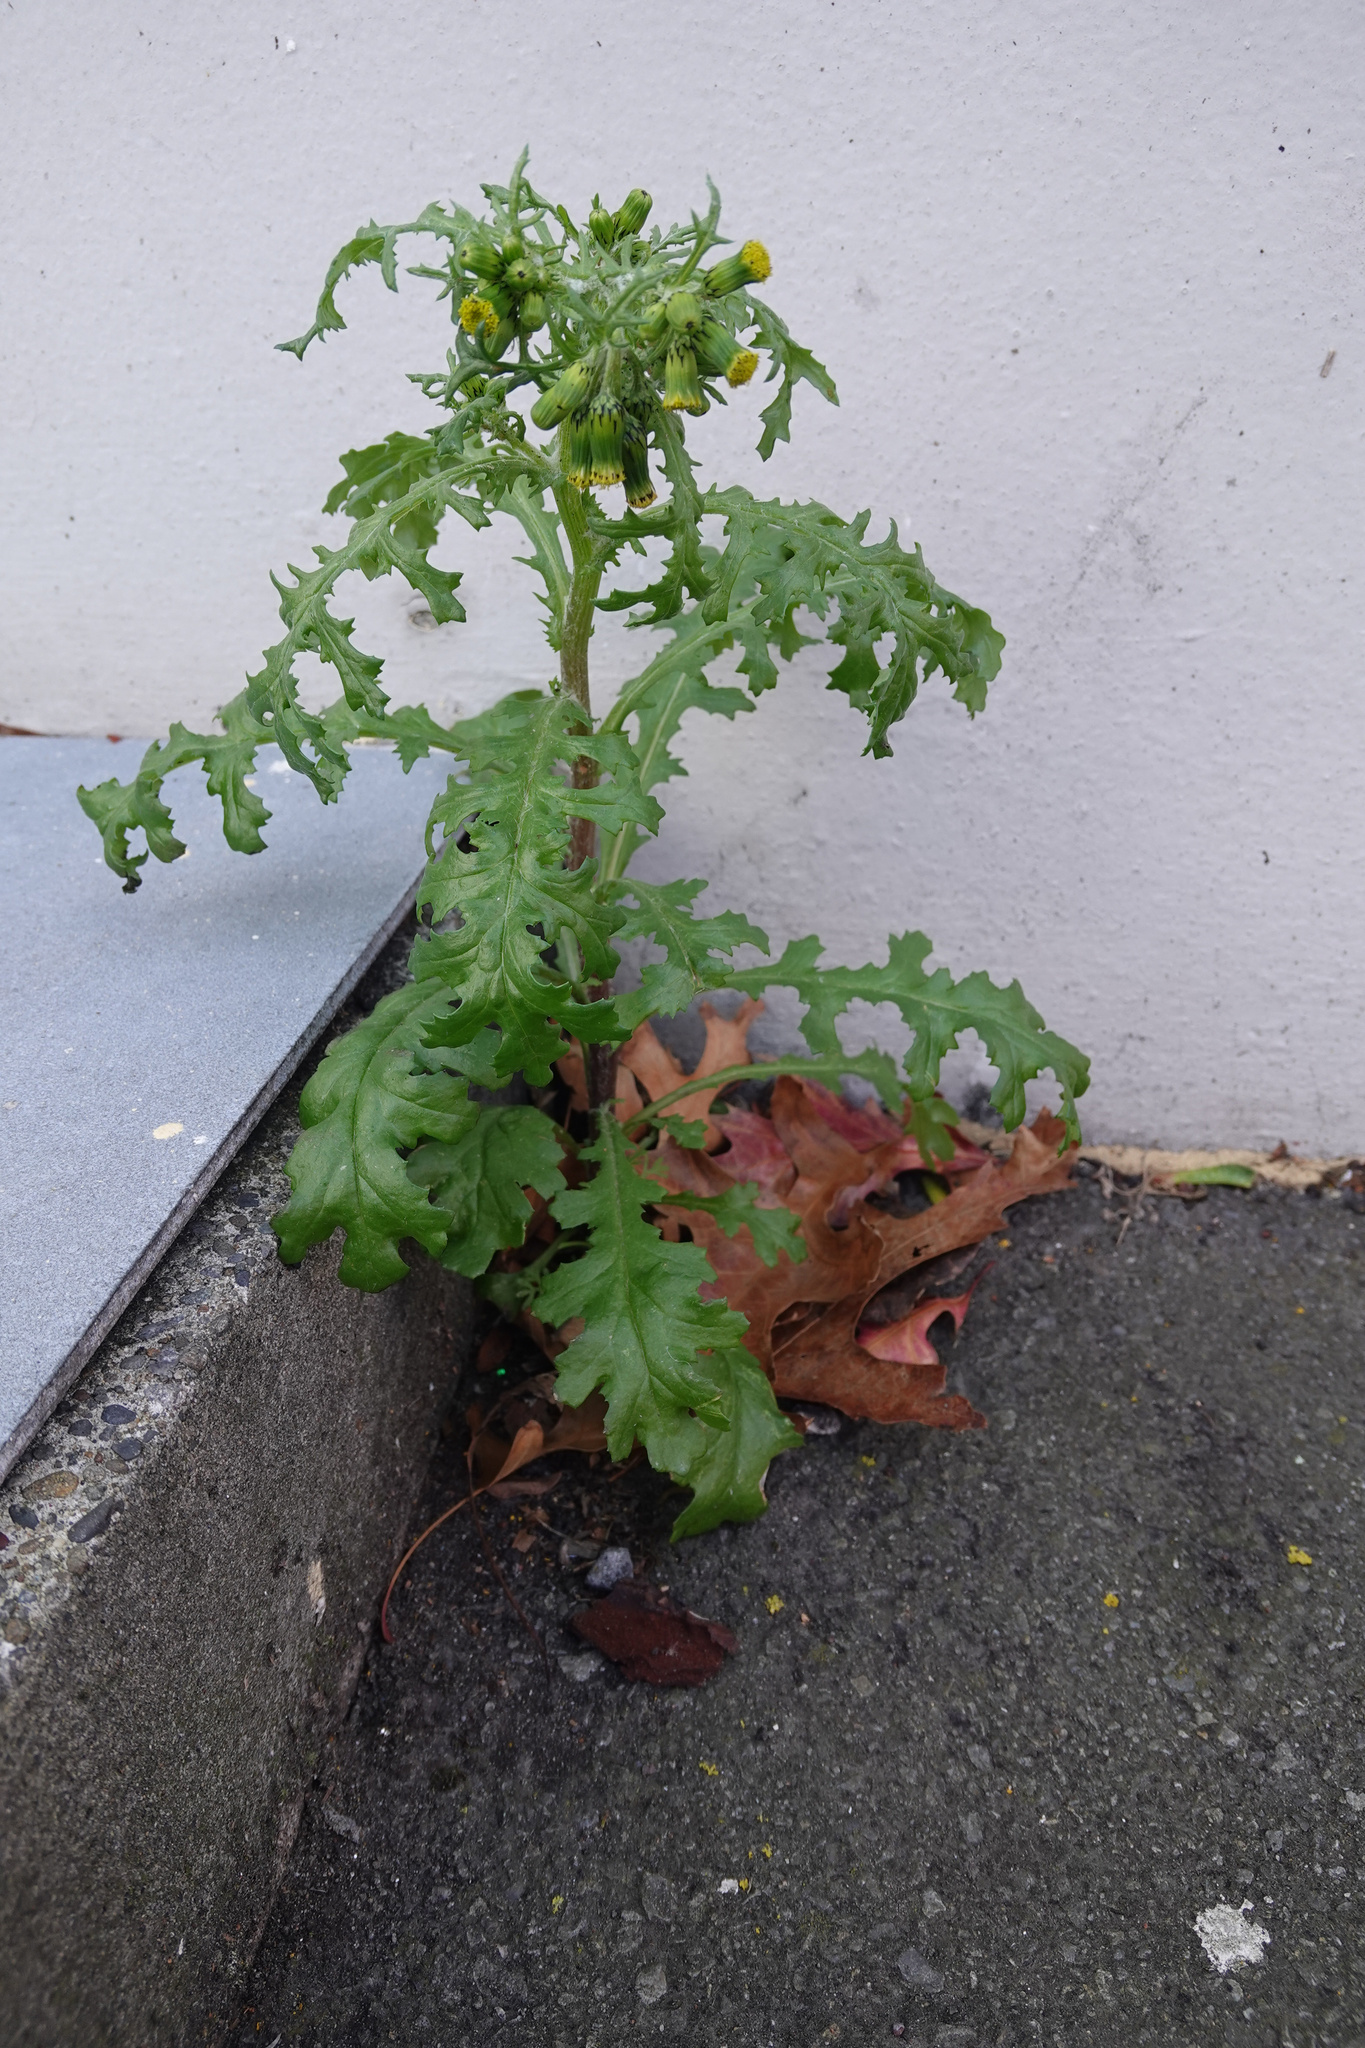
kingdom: Plantae
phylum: Tracheophyta
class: Magnoliopsida
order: Asterales
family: Asteraceae
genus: Senecio
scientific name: Senecio vulgaris
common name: Old-man-in-the-spring
